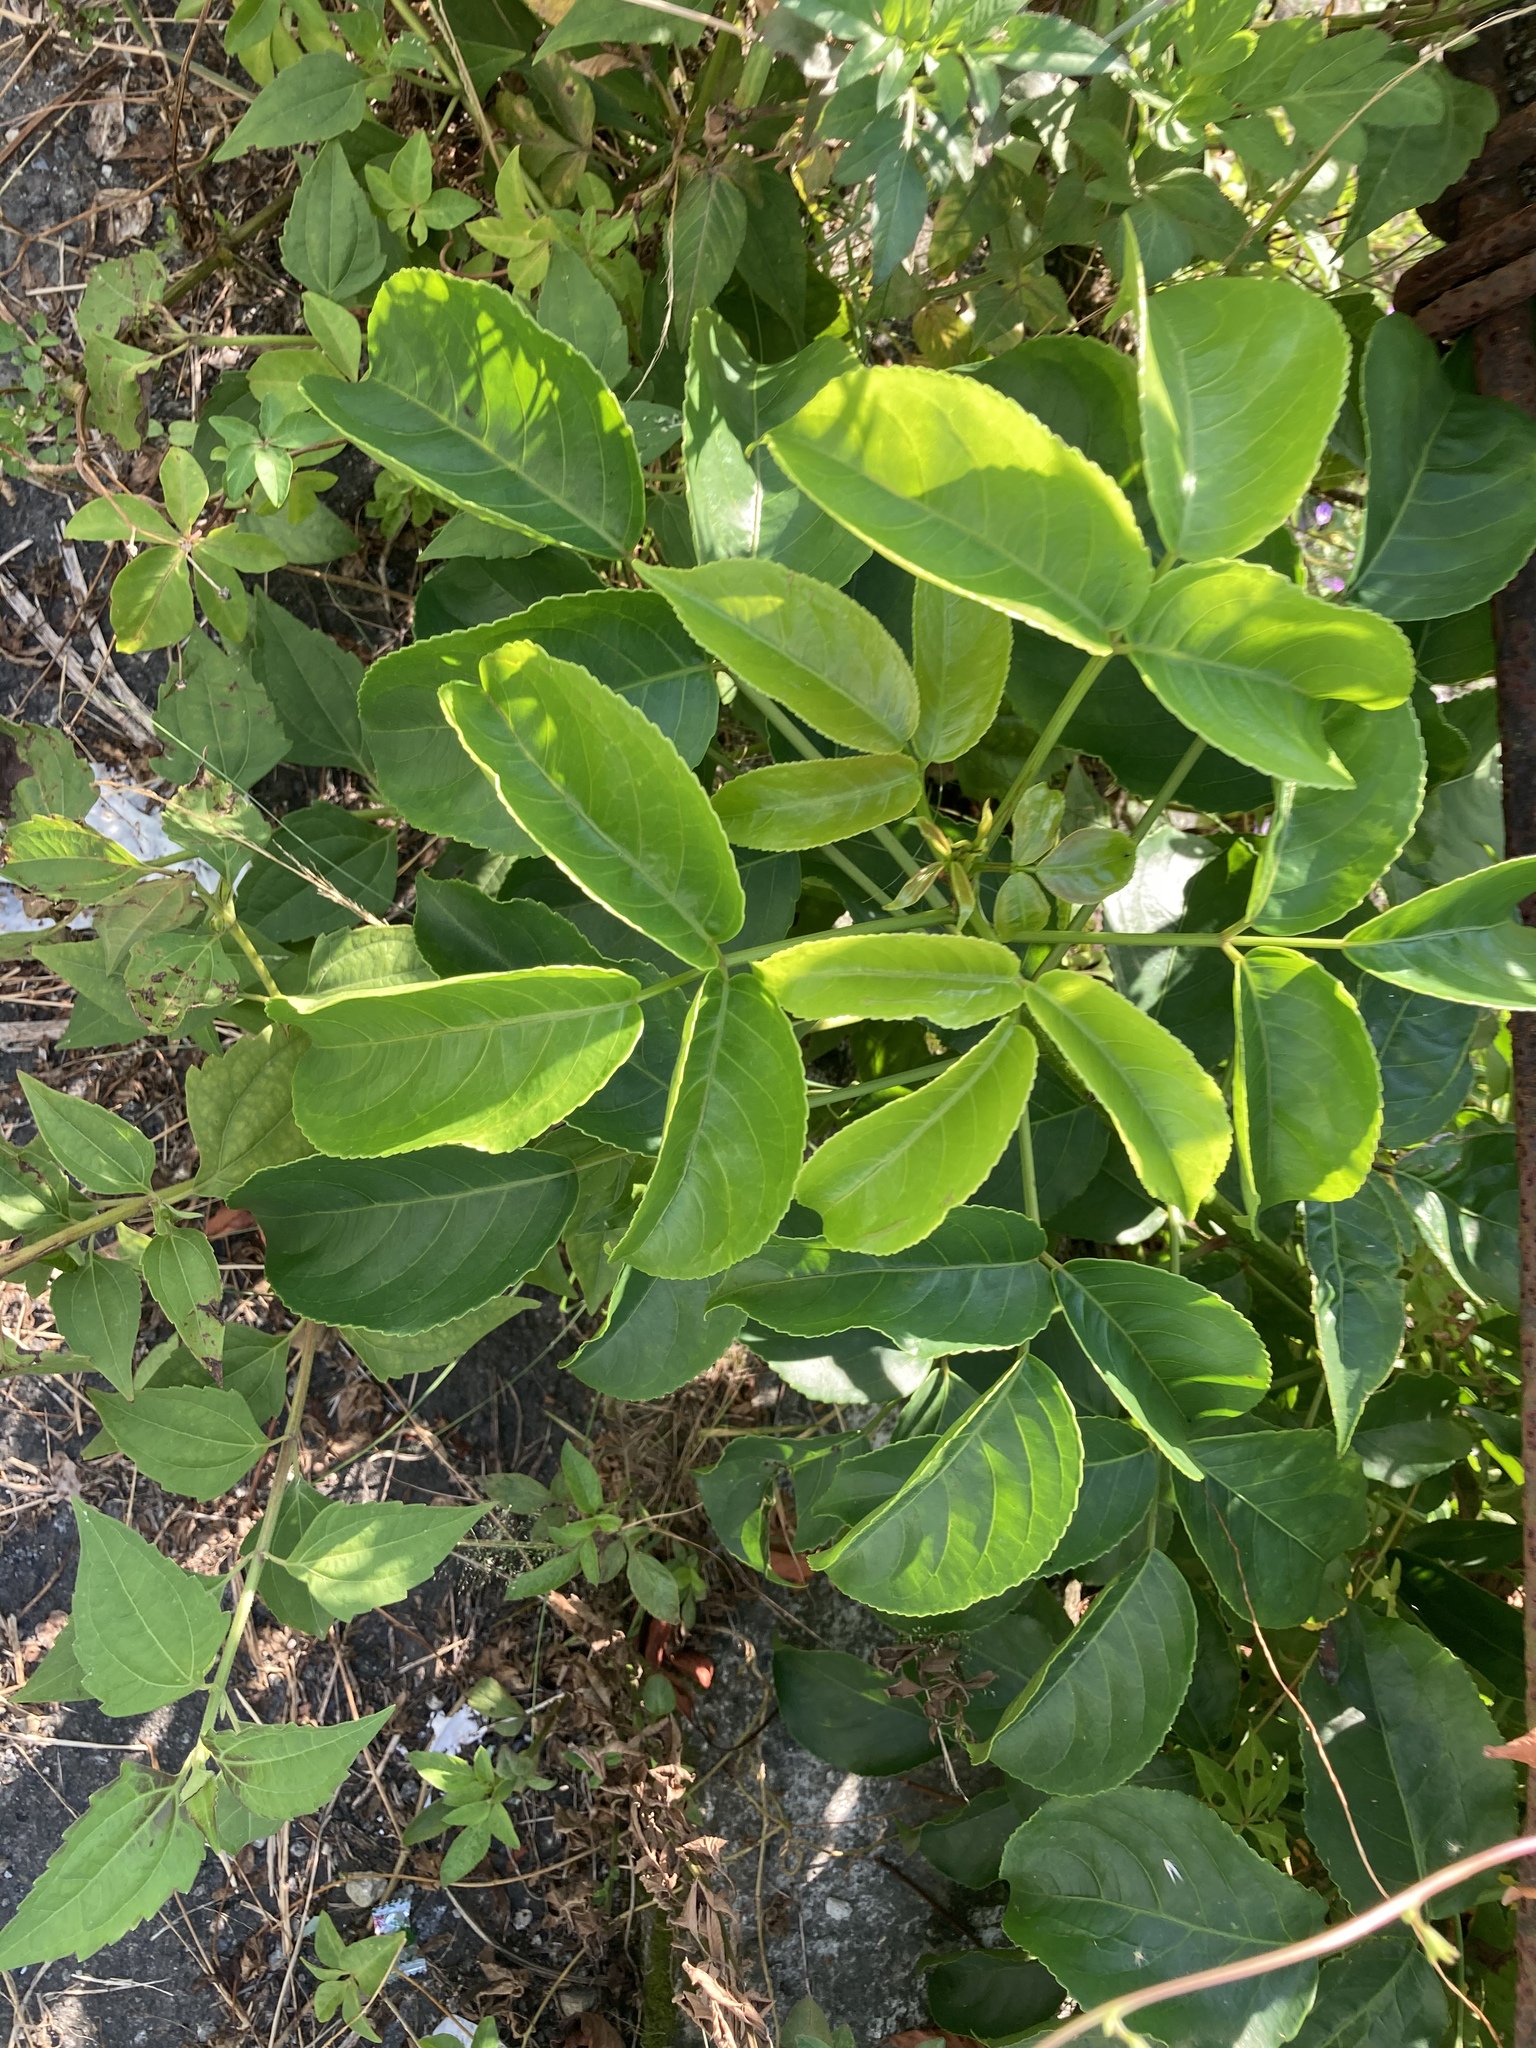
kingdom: Plantae
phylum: Tracheophyta
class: Magnoliopsida
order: Malpighiales
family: Phyllanthaceae
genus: Bischofia
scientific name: Bischofia javanica
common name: Javanese bishopwood
